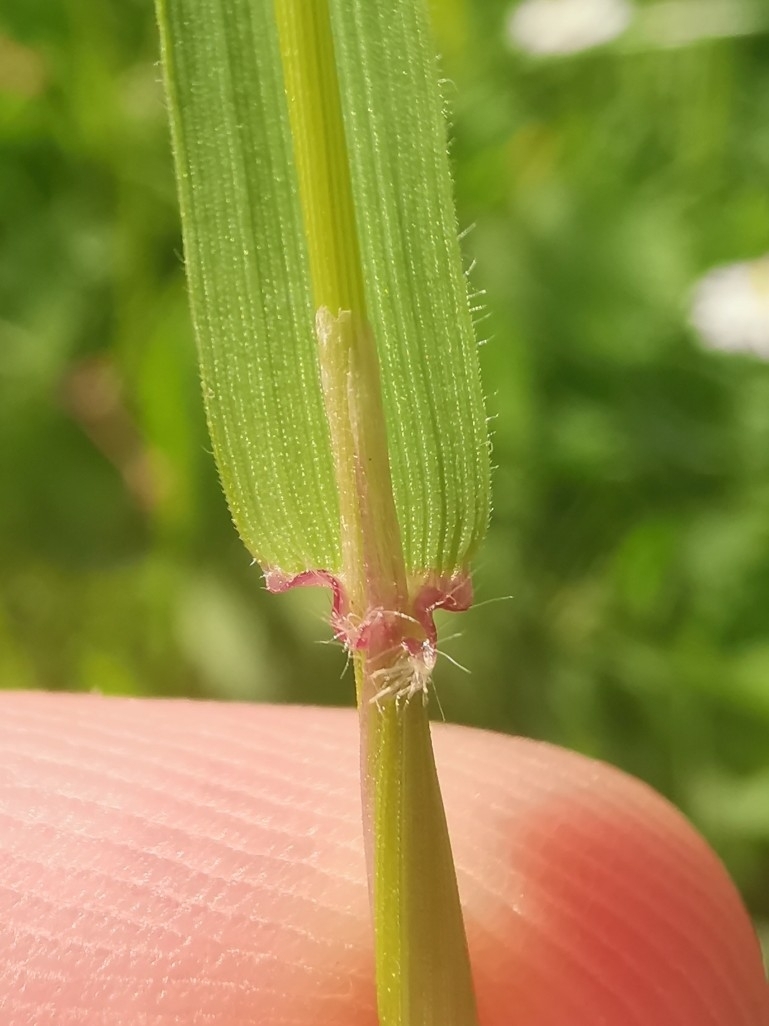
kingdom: Plantae
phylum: Tracheophyta
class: Liliopsida
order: Poales
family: Poaceae
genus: Anthoxanthum
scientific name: Anthoxanthum odoratum
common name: Sweet vernalgrass
